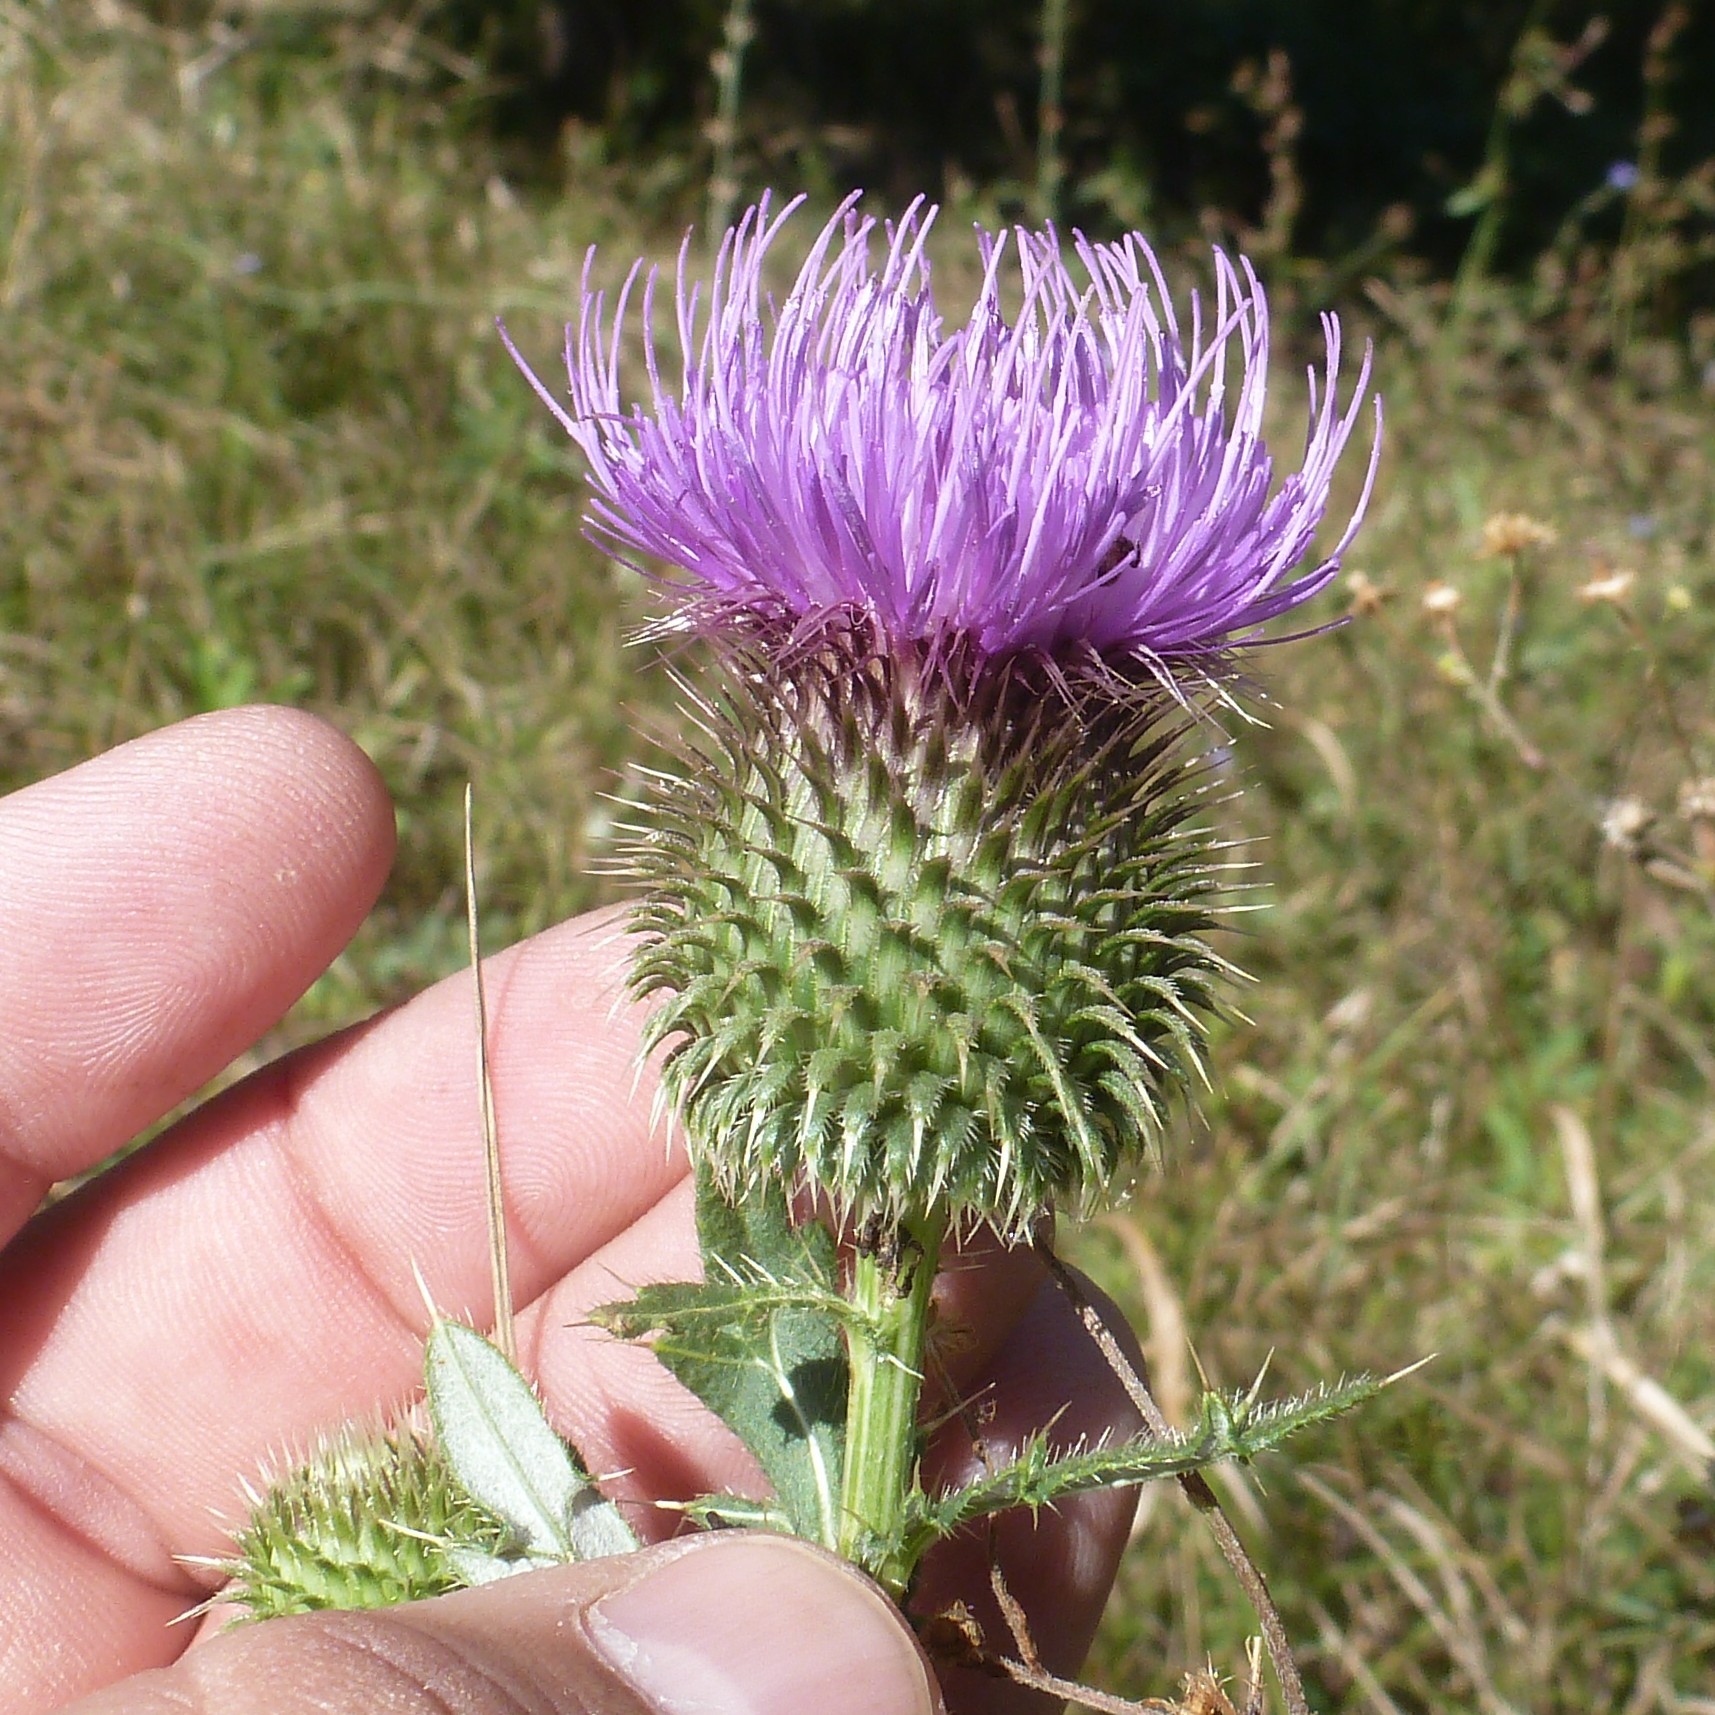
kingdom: Plantae
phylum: Tracheophyta
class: Magnoliopsida
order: Asterales
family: Asteraceae
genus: Lophiolepis
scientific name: Lophiolepis ciliata
